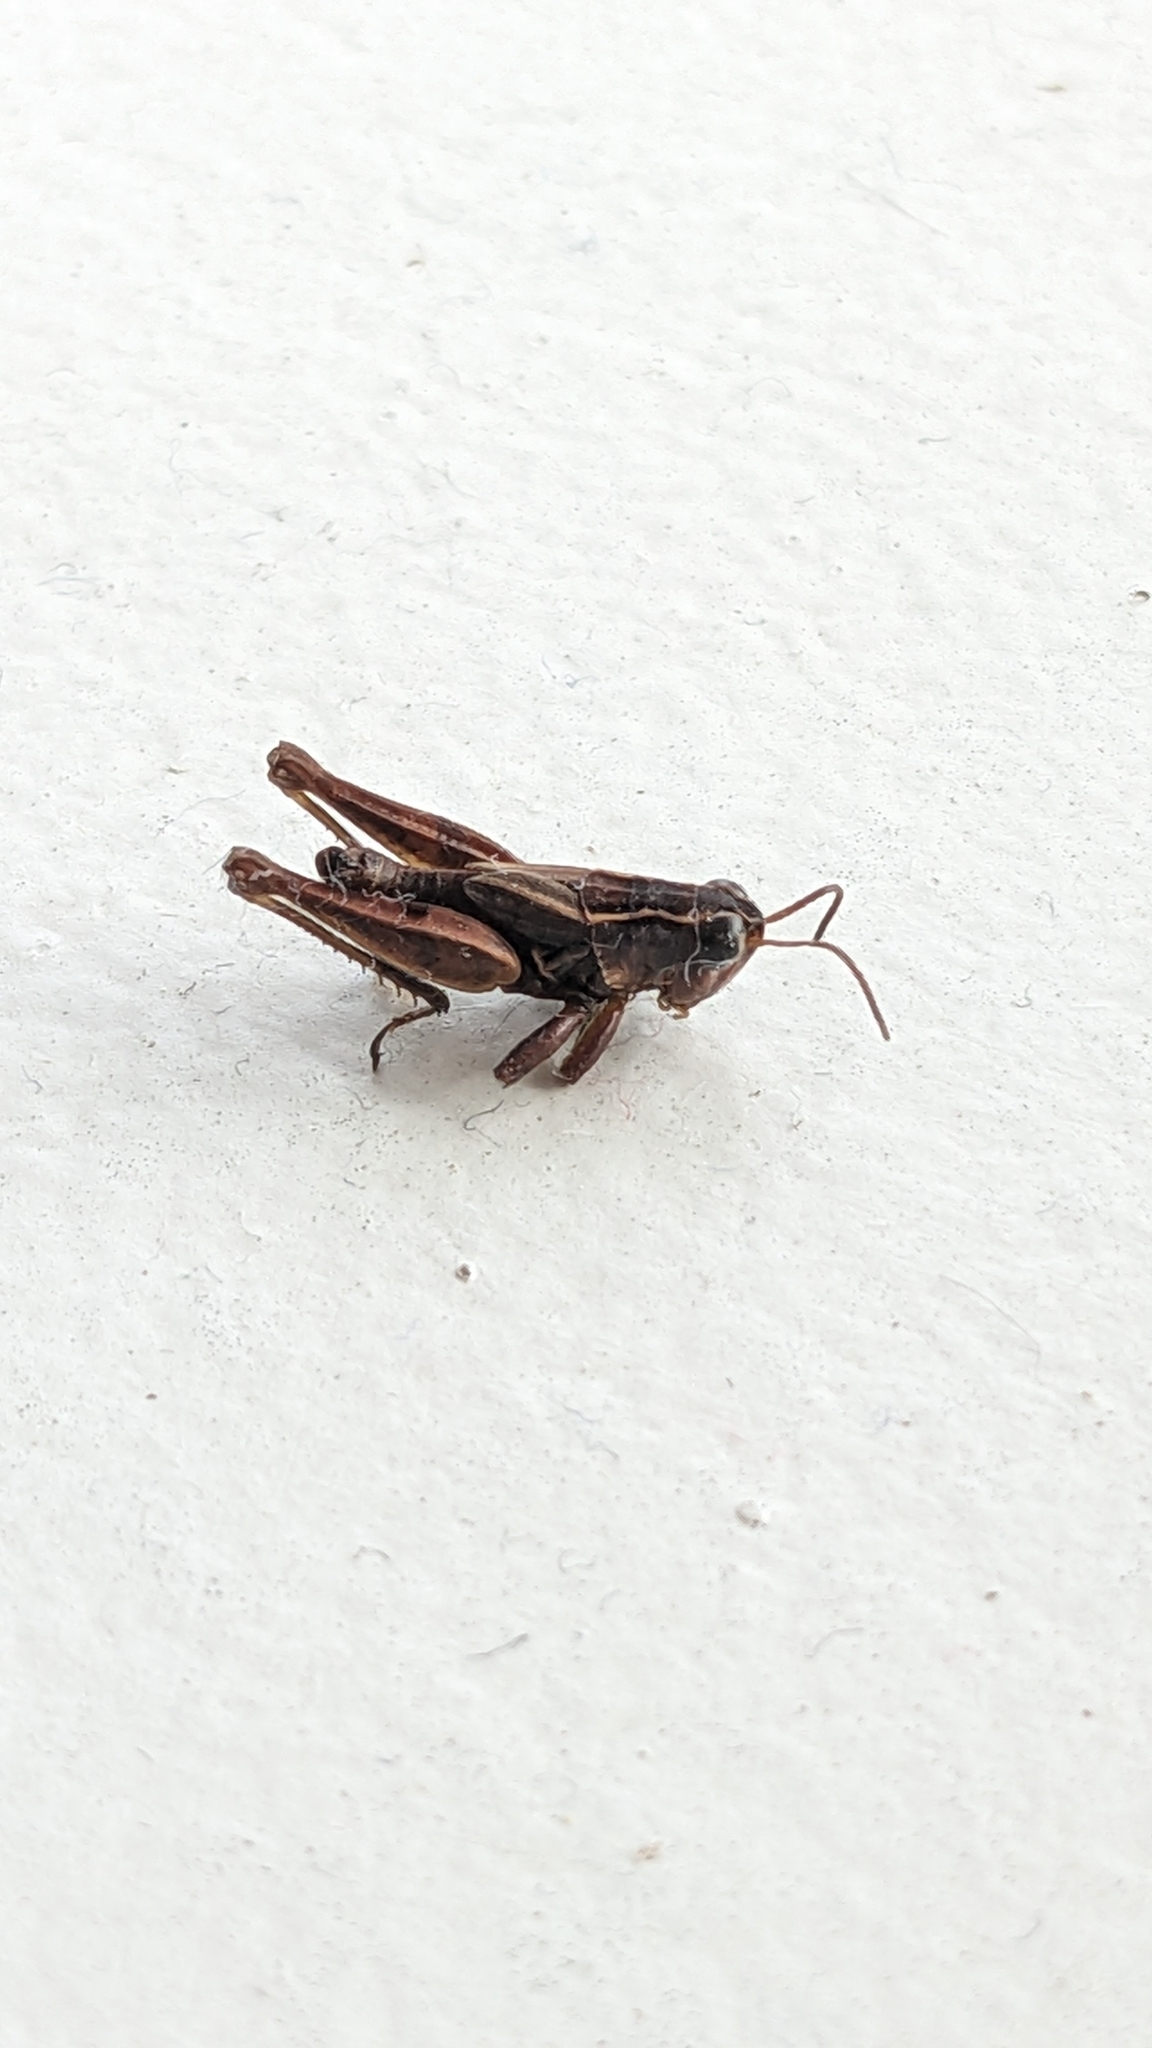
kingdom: Animalia
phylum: Arthropoda
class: Insecta
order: Orthoptera
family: Acrididae
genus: Phaulacridium
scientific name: Phaulacridium marginale
